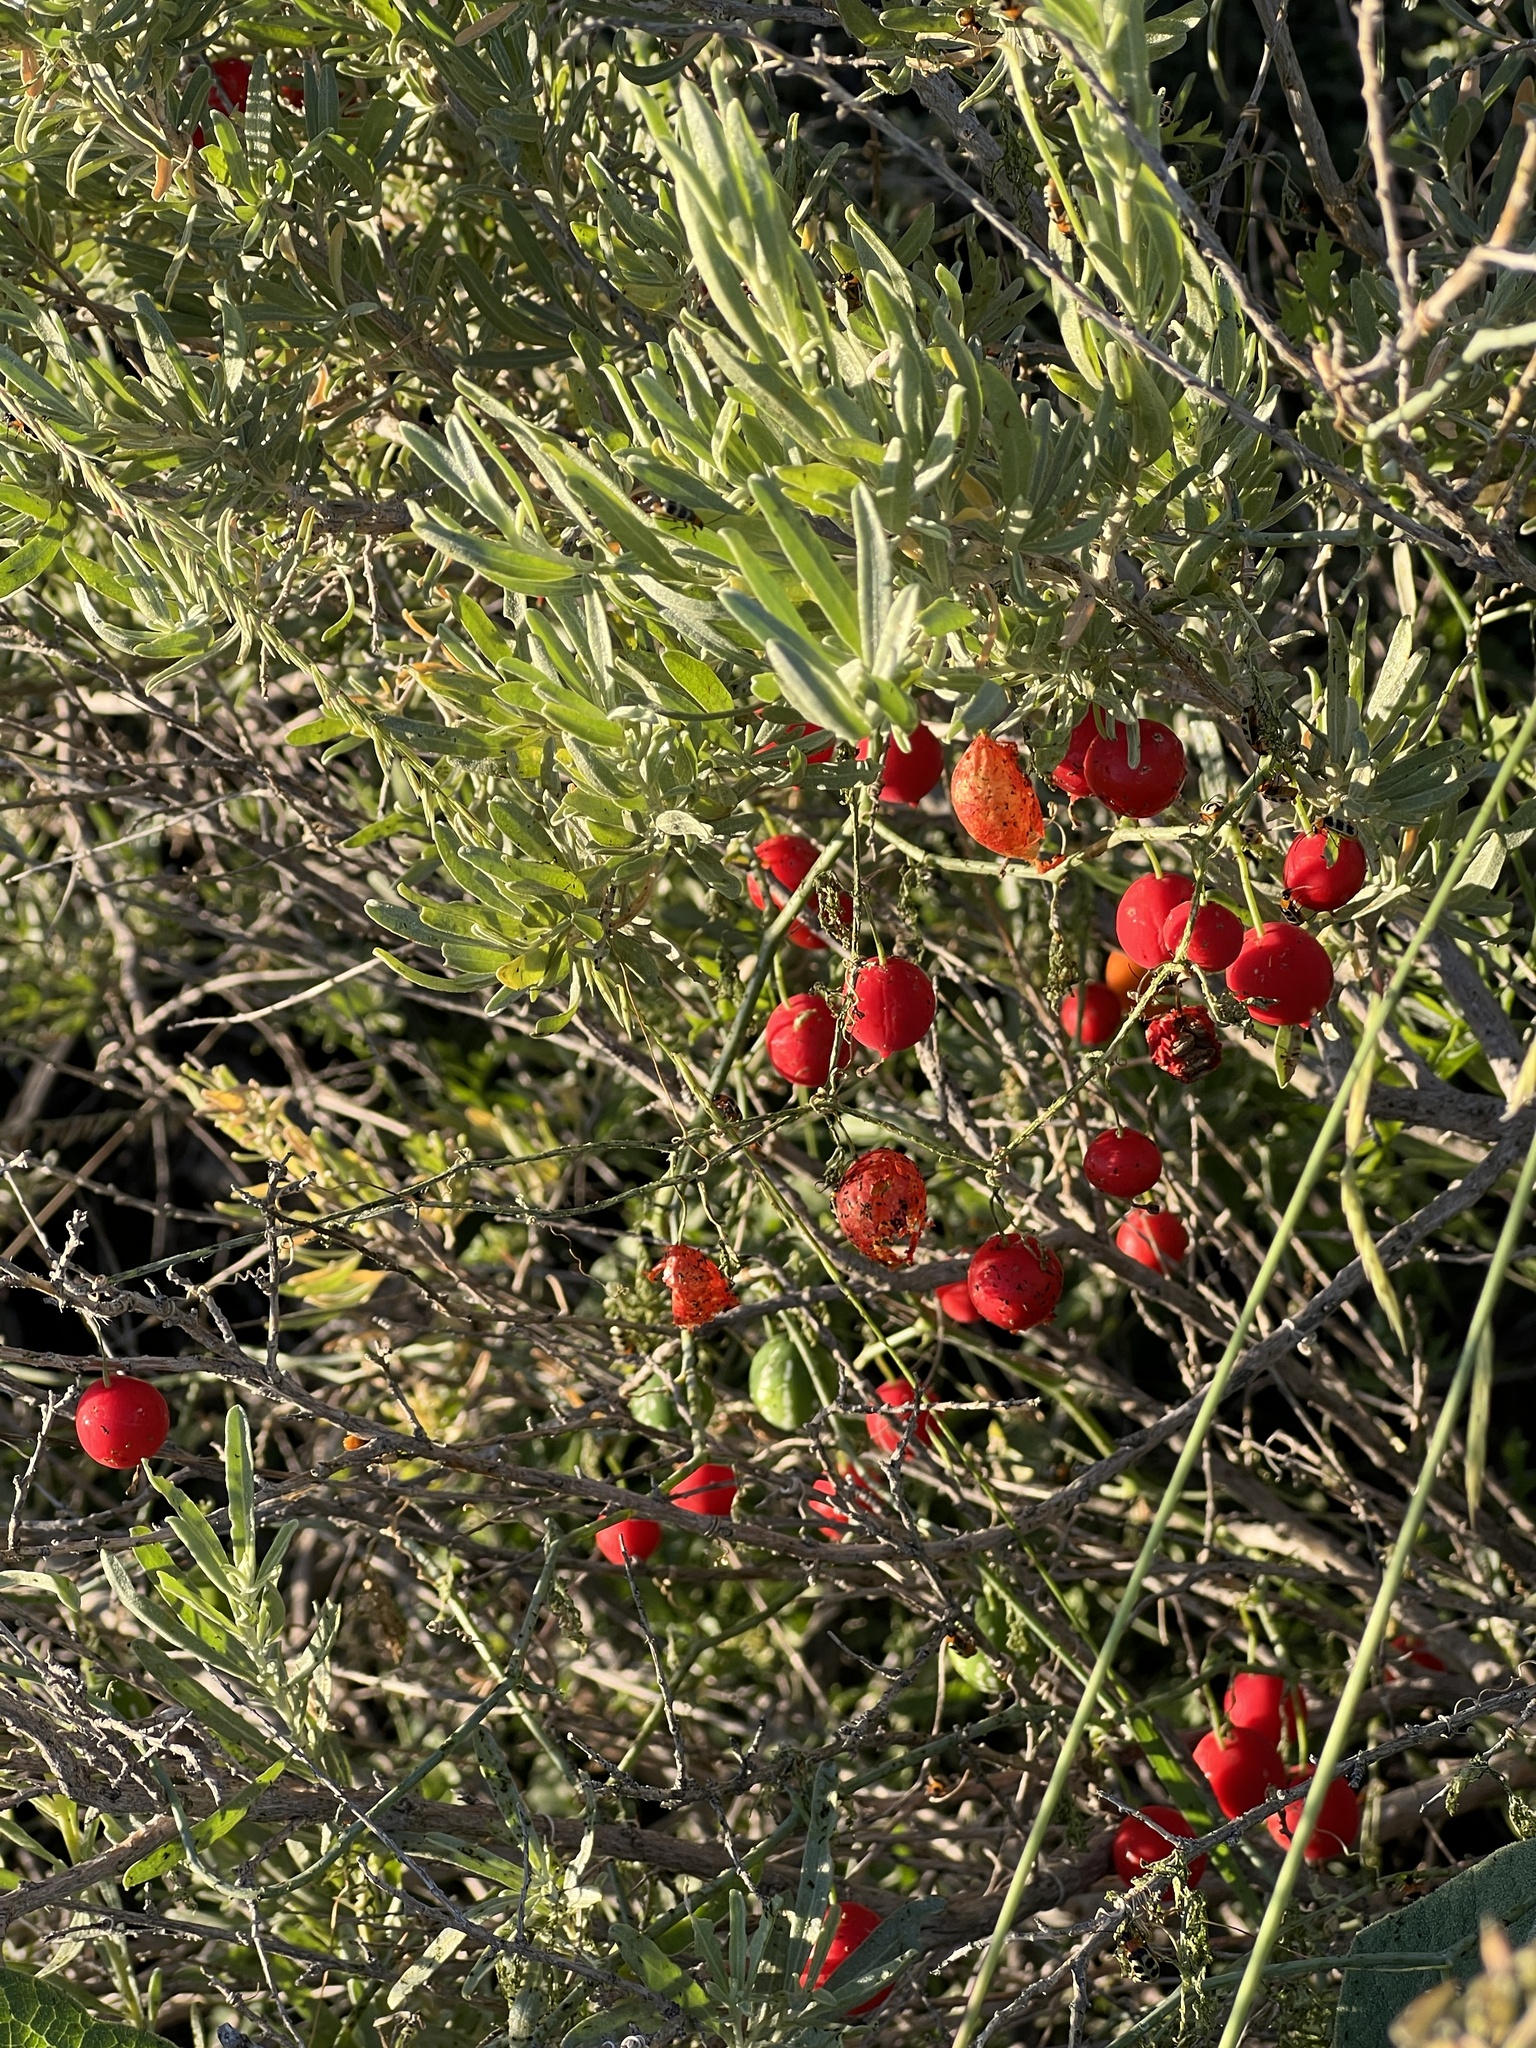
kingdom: Plantae
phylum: Tracheophyta
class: Magnoliopsida
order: Cucurbitales
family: Cucurbitaceae
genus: Ibervillea
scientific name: Ibervillea tenuisecta
